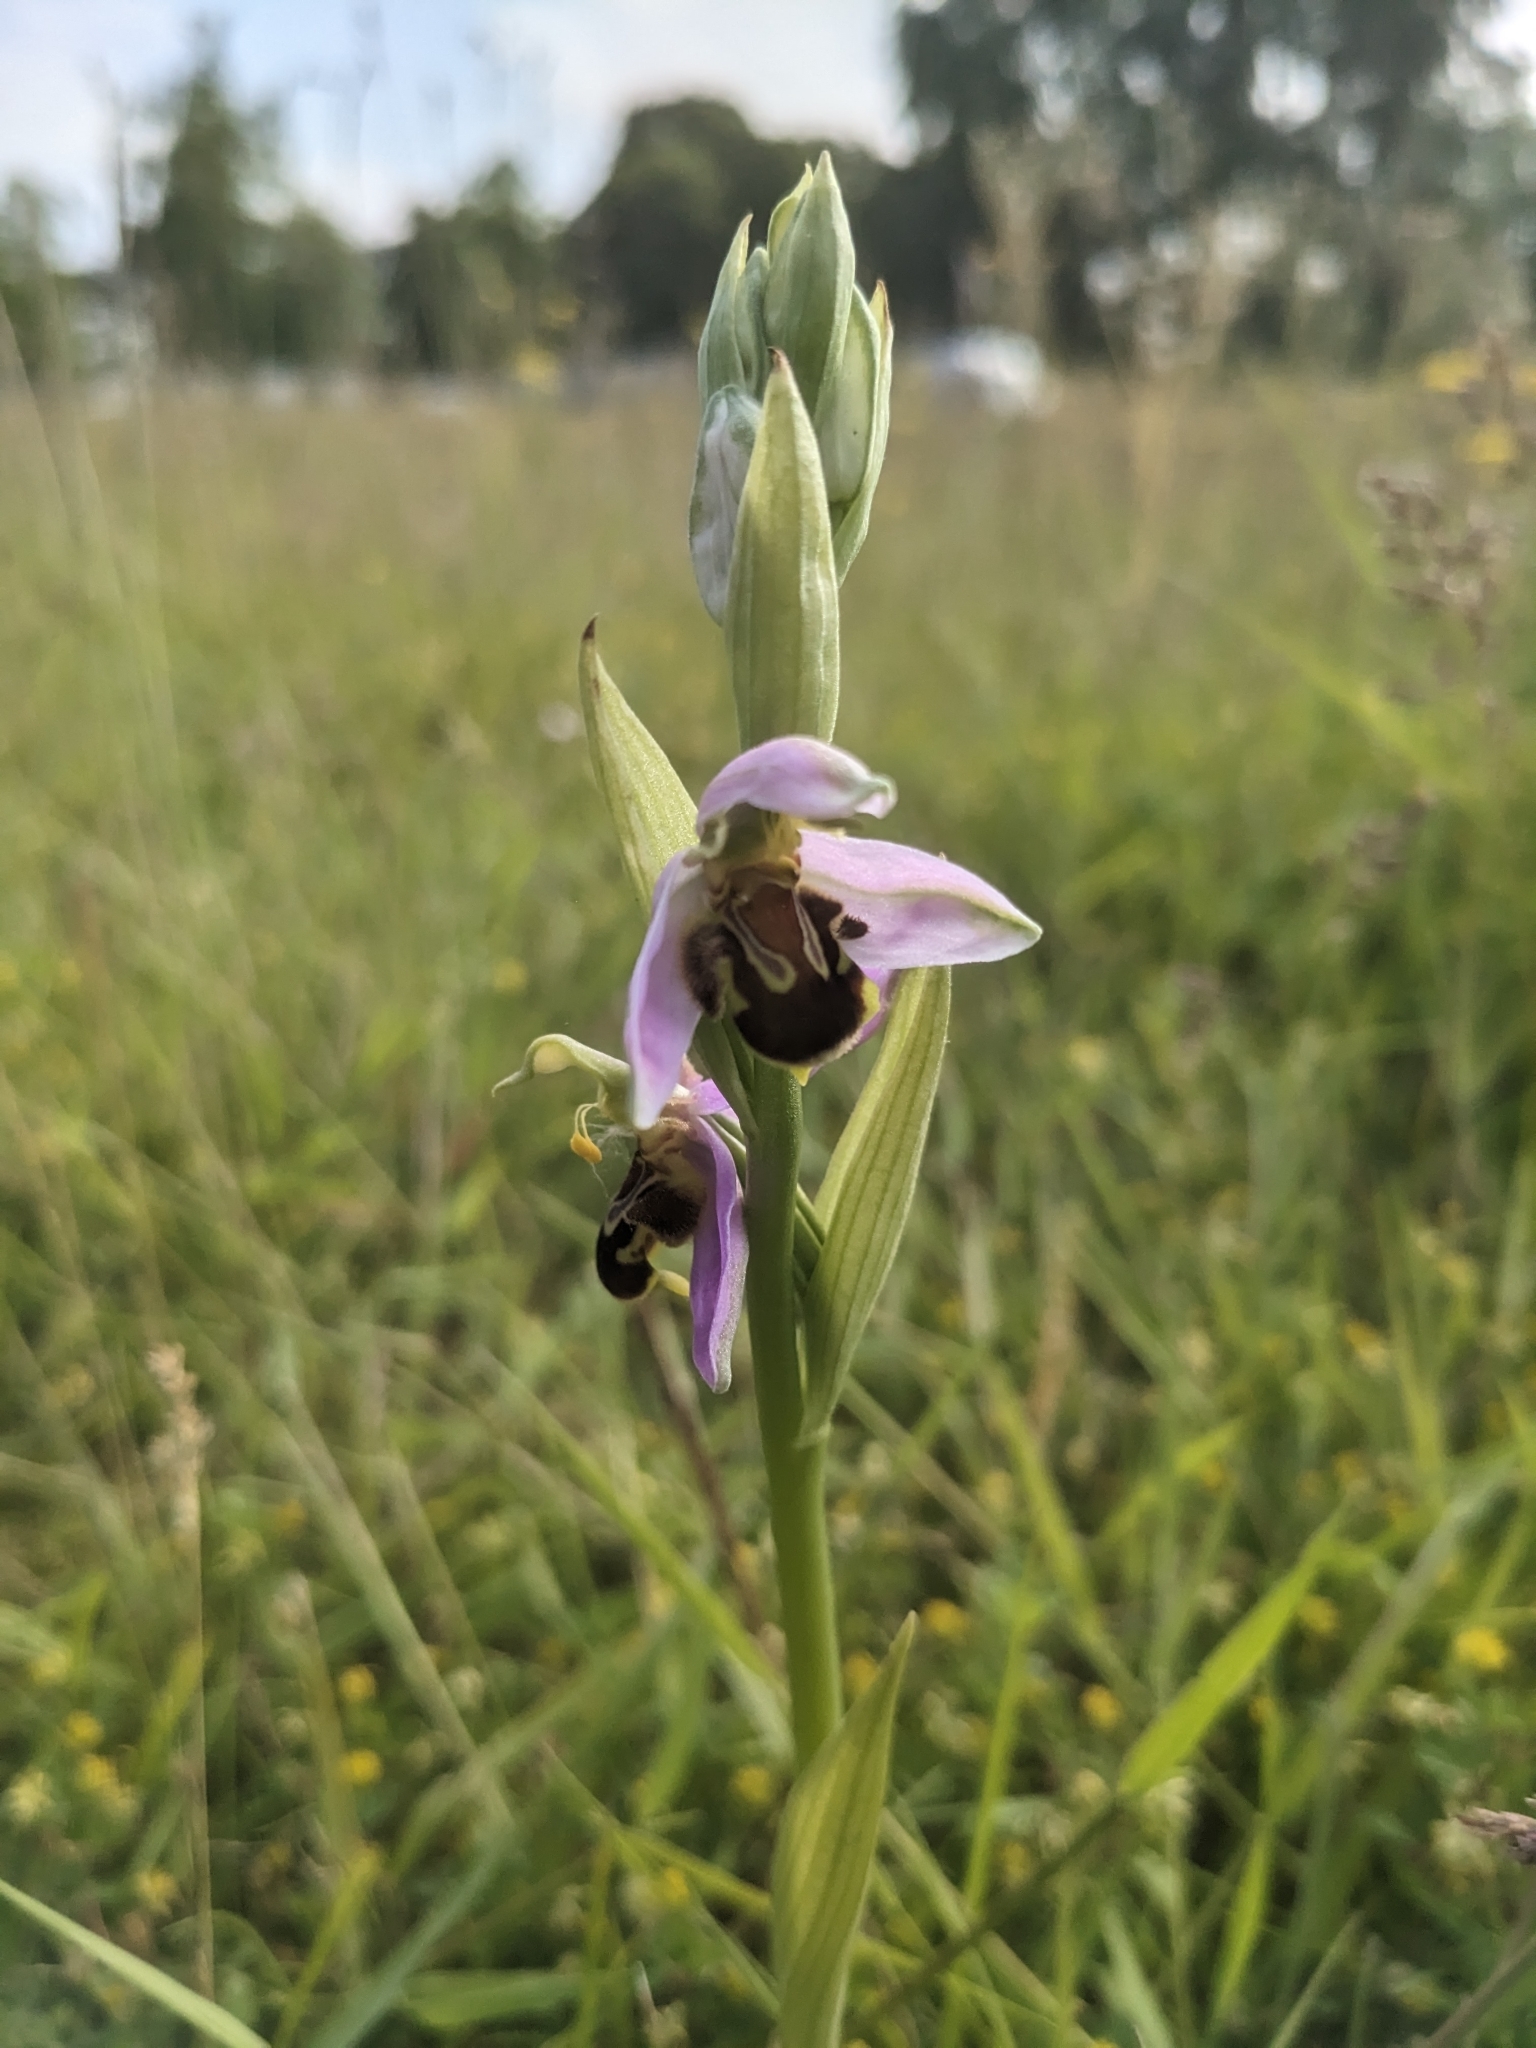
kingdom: Plantae
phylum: Tracheophyta
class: Liliopsida
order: Asparagales
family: Orchidaceae
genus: Ophrys
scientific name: Ophrys apifera
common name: Bee orchid
